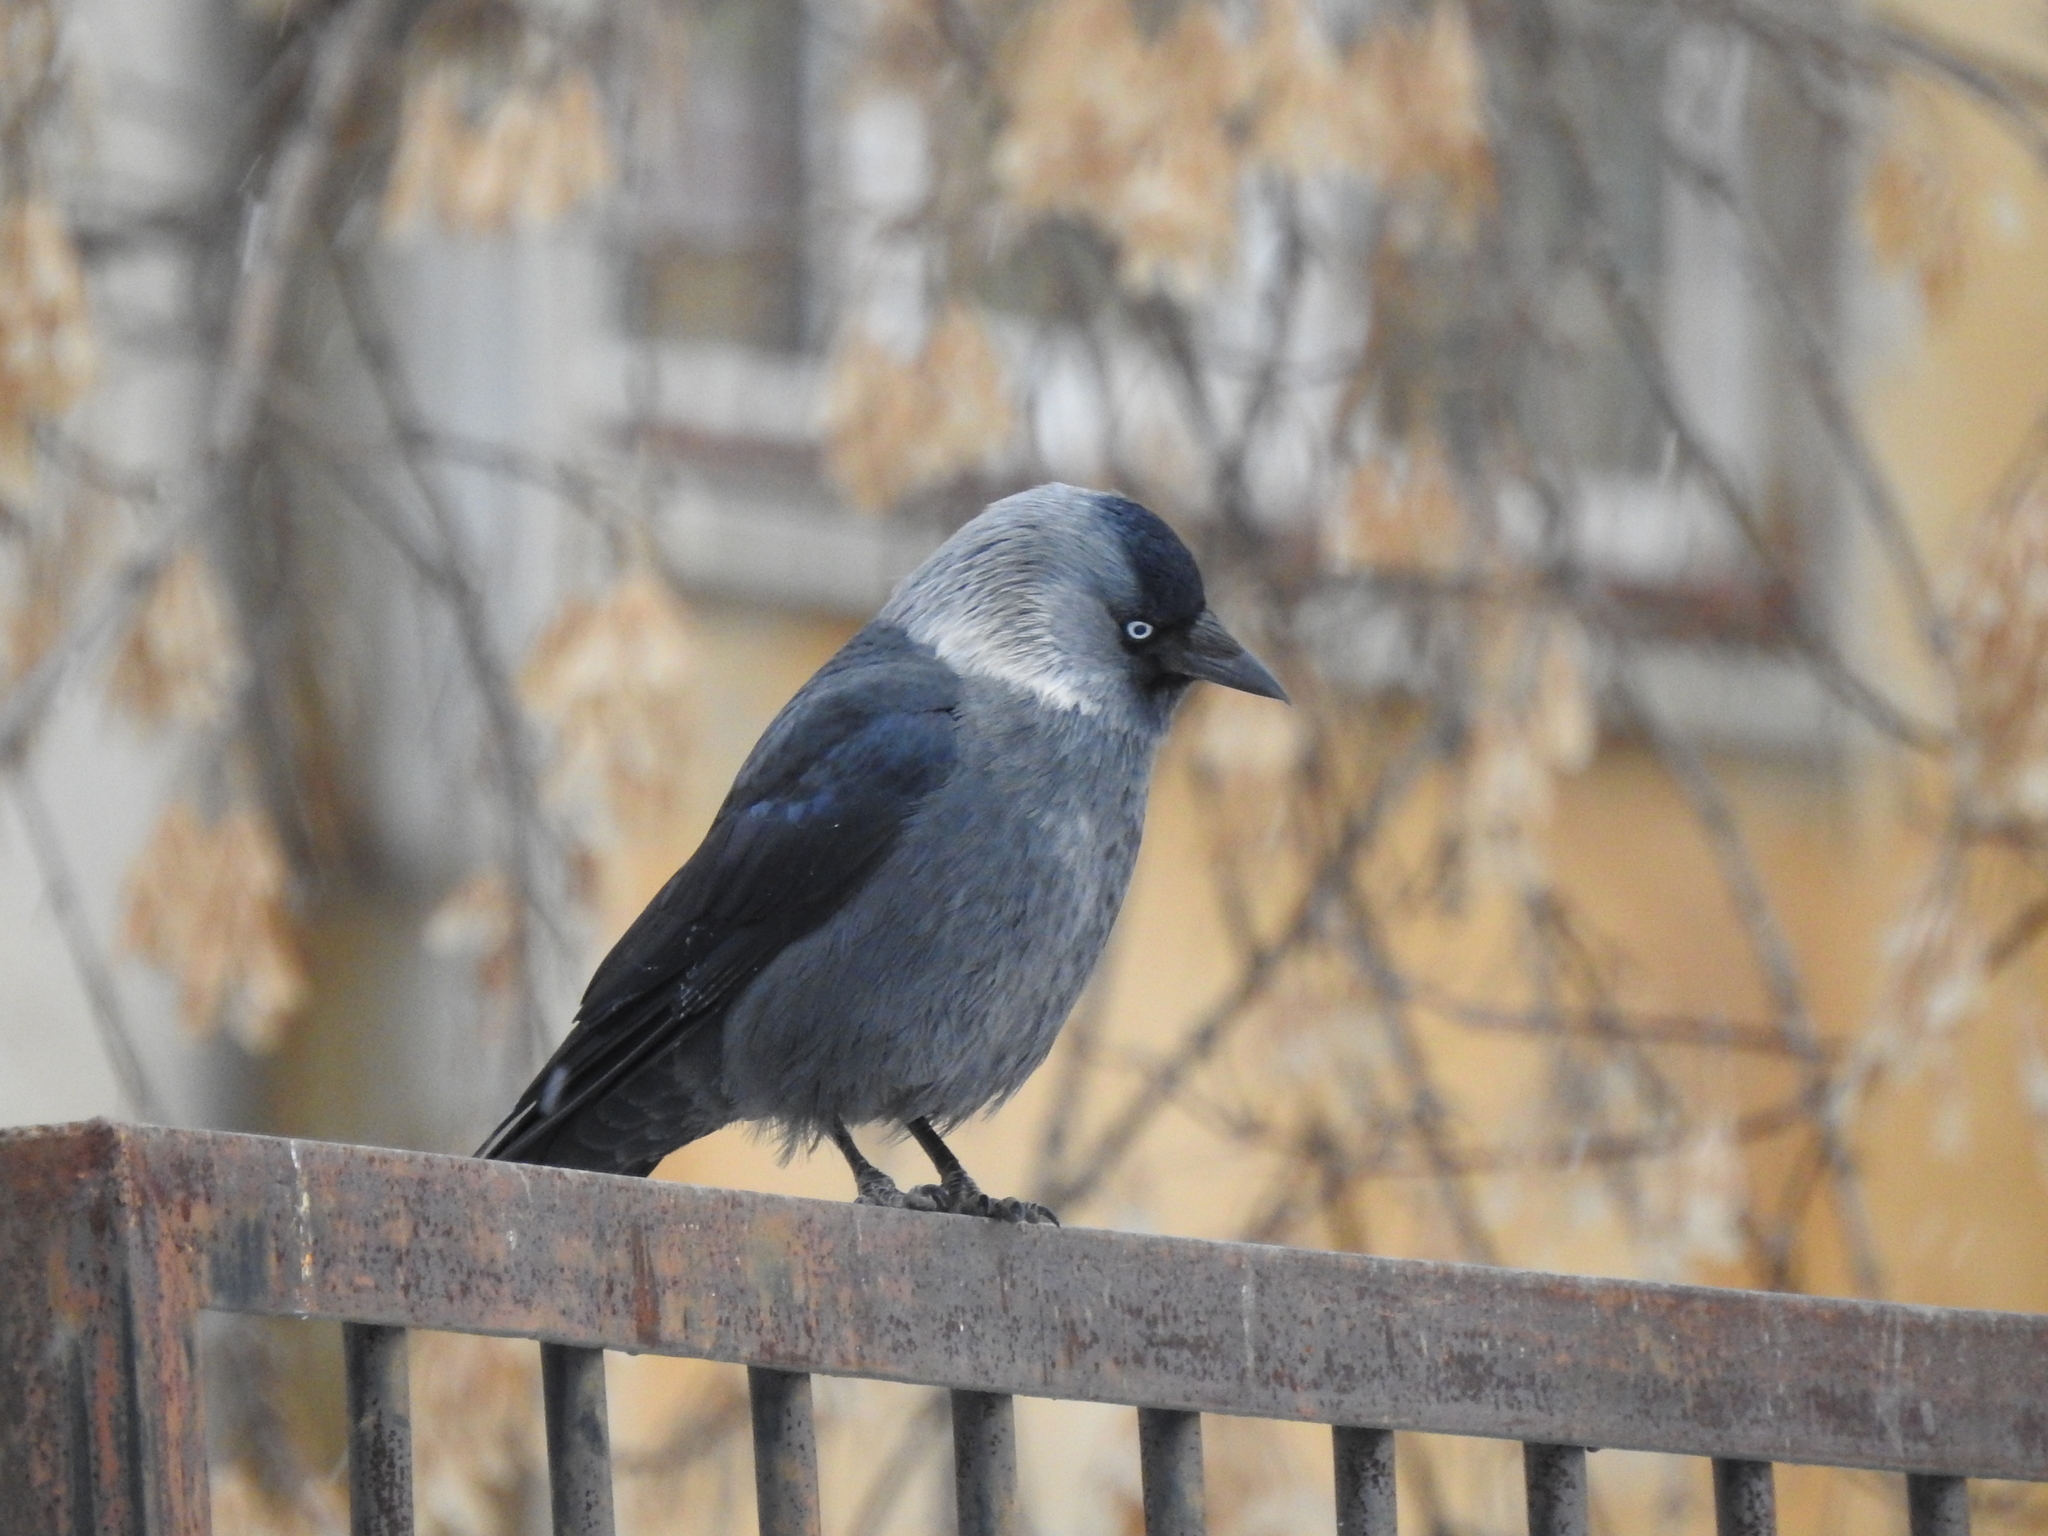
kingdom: Animalia
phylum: Chordata
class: Aves
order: Passeriformes
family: Corvidae
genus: Coloeus
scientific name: Coloeus monedula
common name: Western jackdaw
